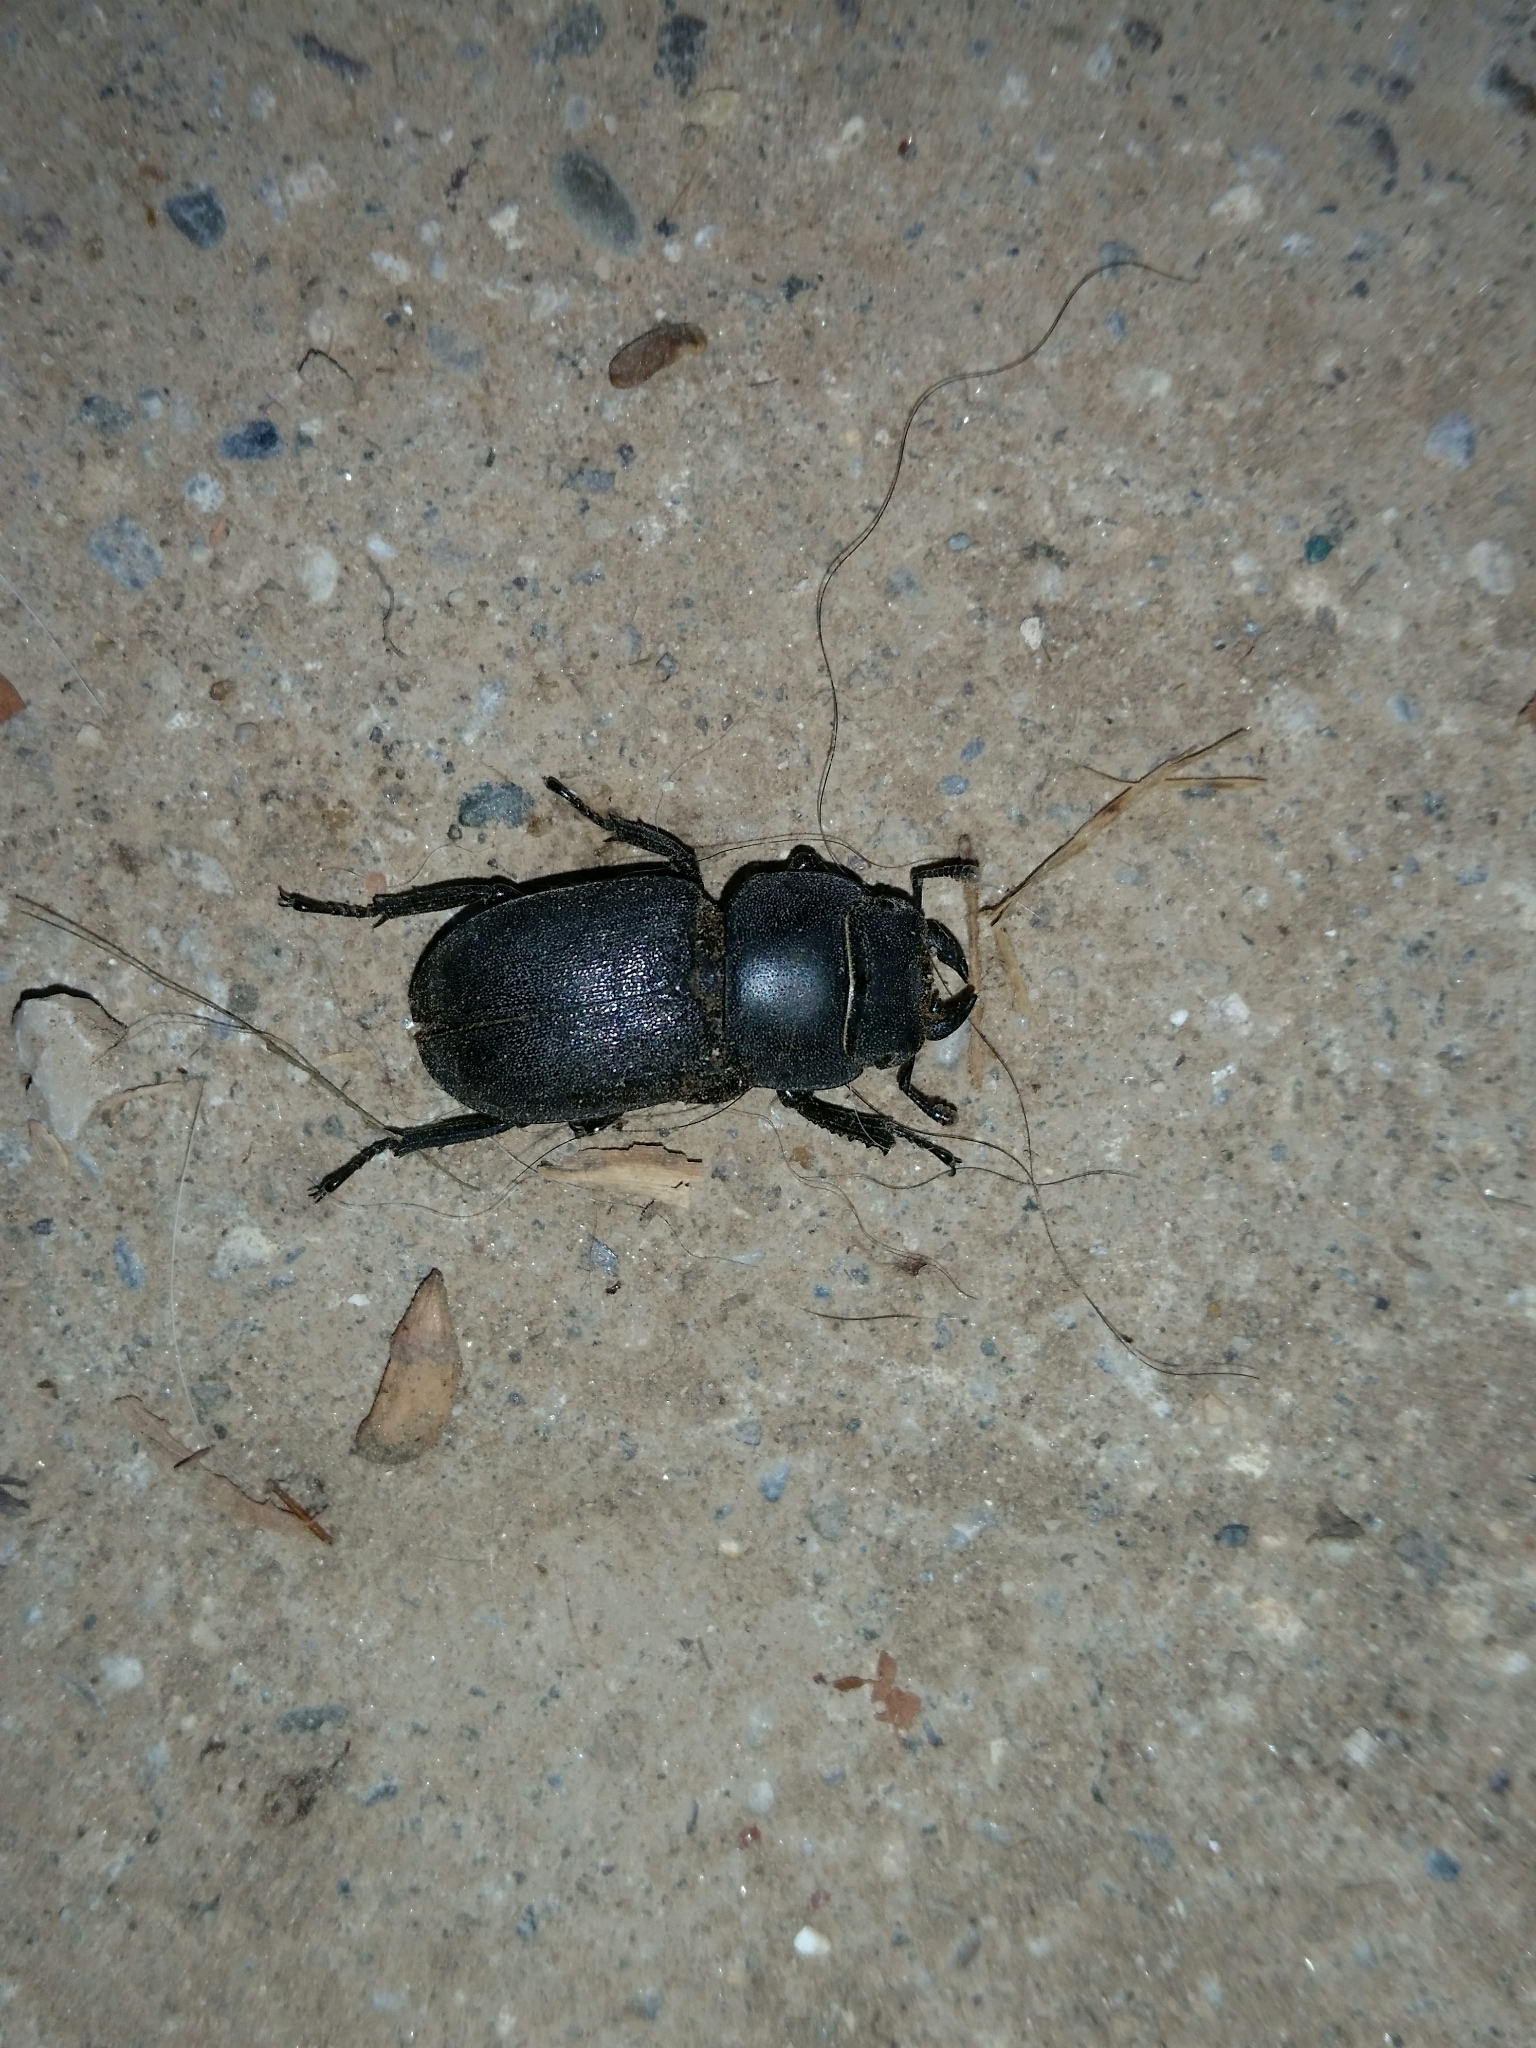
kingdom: Animalia
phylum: Arthropoda
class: Insecta
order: Coleoptera
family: Lucanidae
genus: Dorcus
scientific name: Dorcus parallelipipedus
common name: Lesser stag beetle
